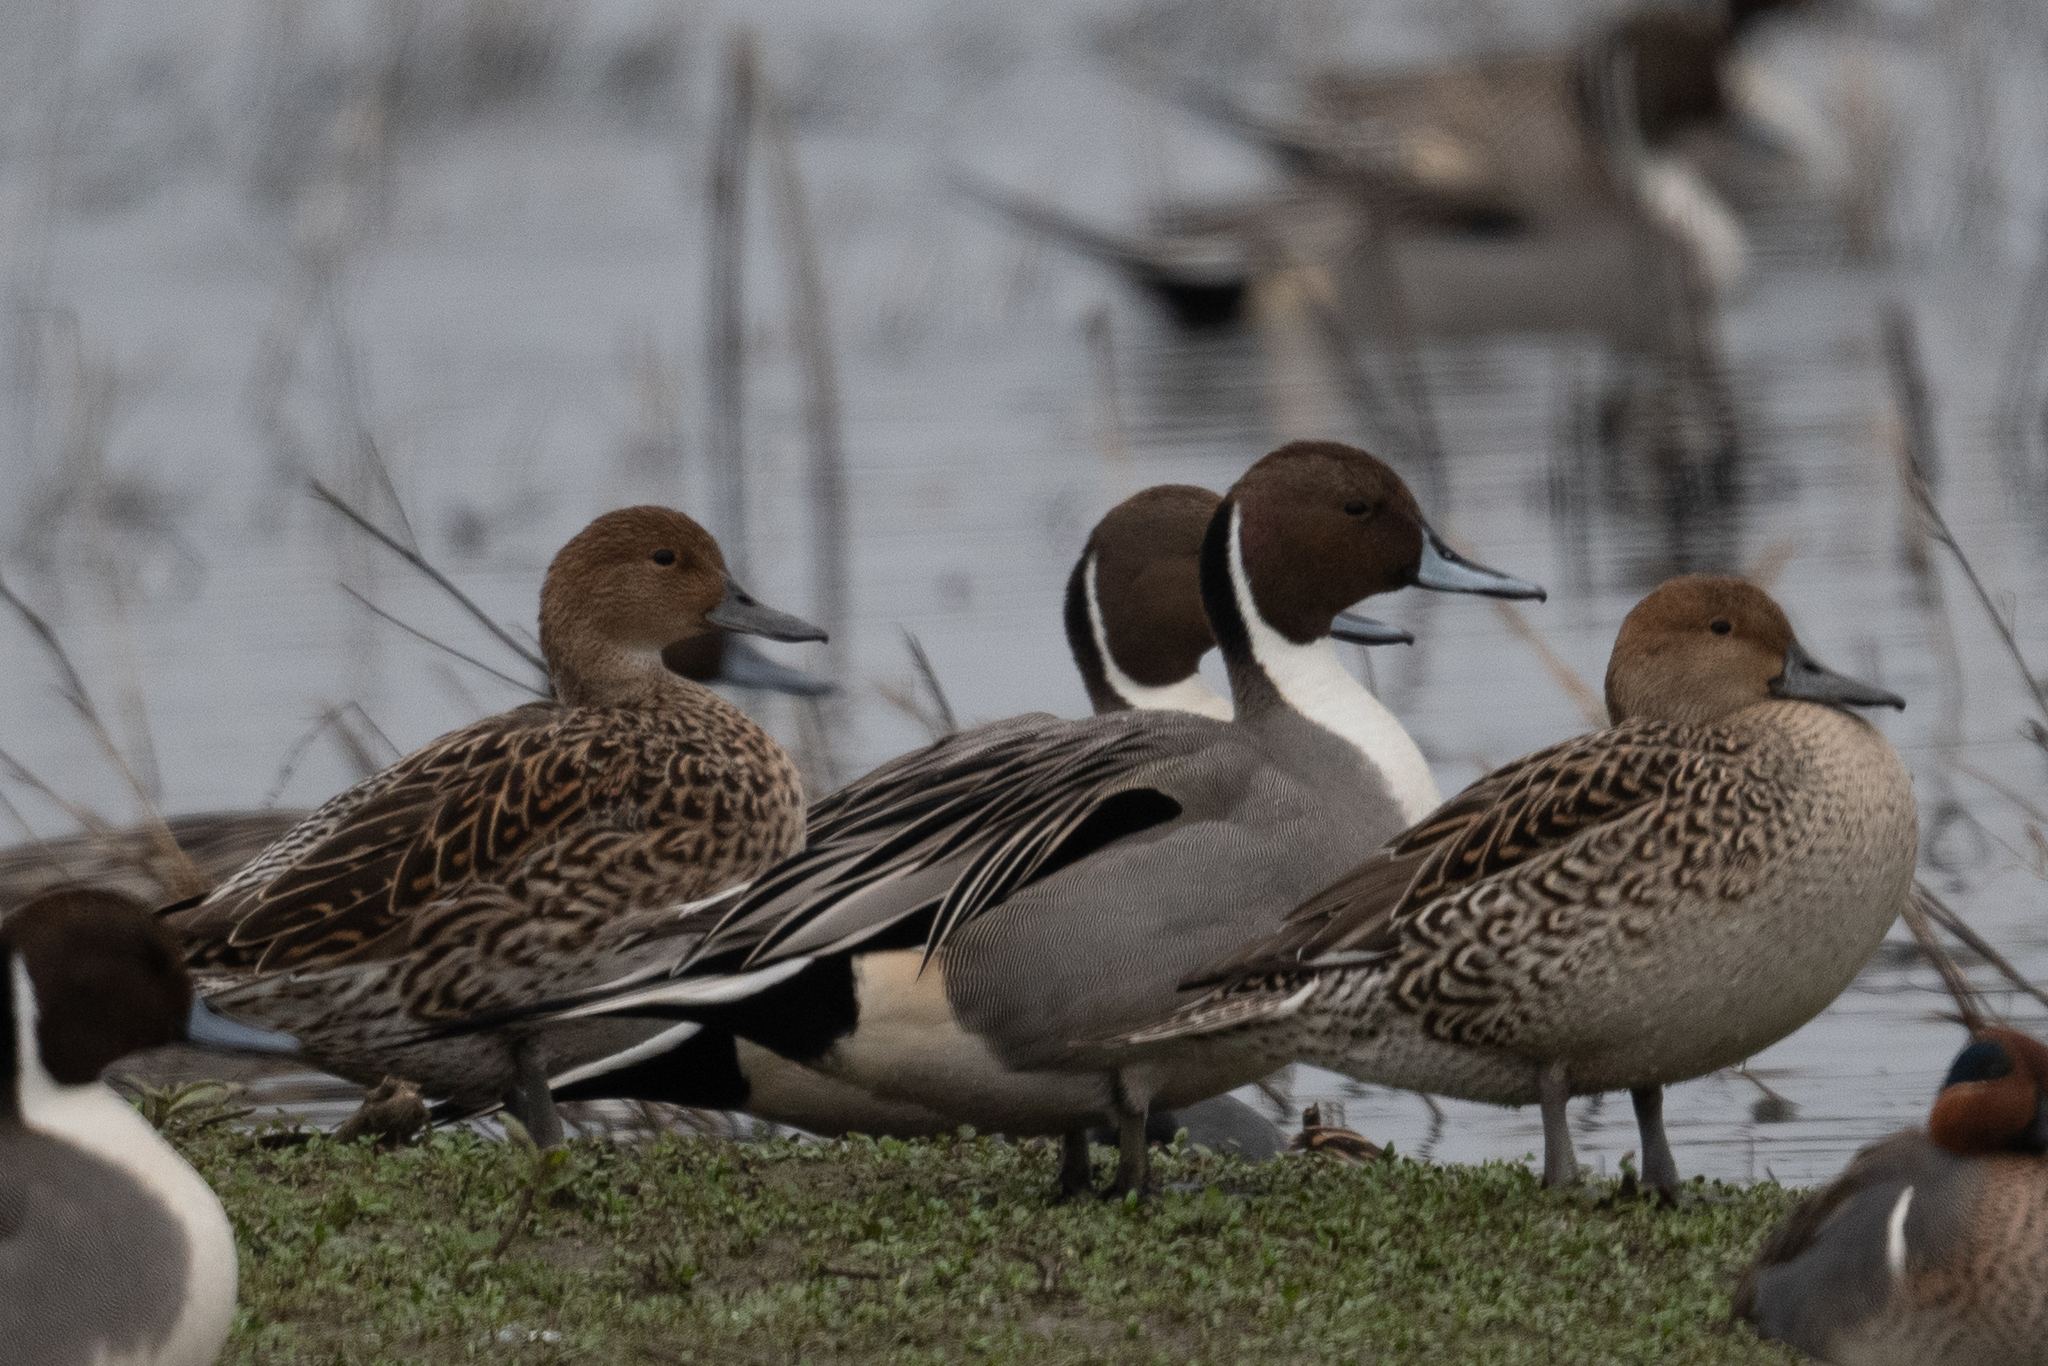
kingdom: Animalia
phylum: Chordata
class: Aves
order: Anseriformes
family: Anatidae
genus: Anas
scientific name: Anas acuta
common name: Northern pintail
